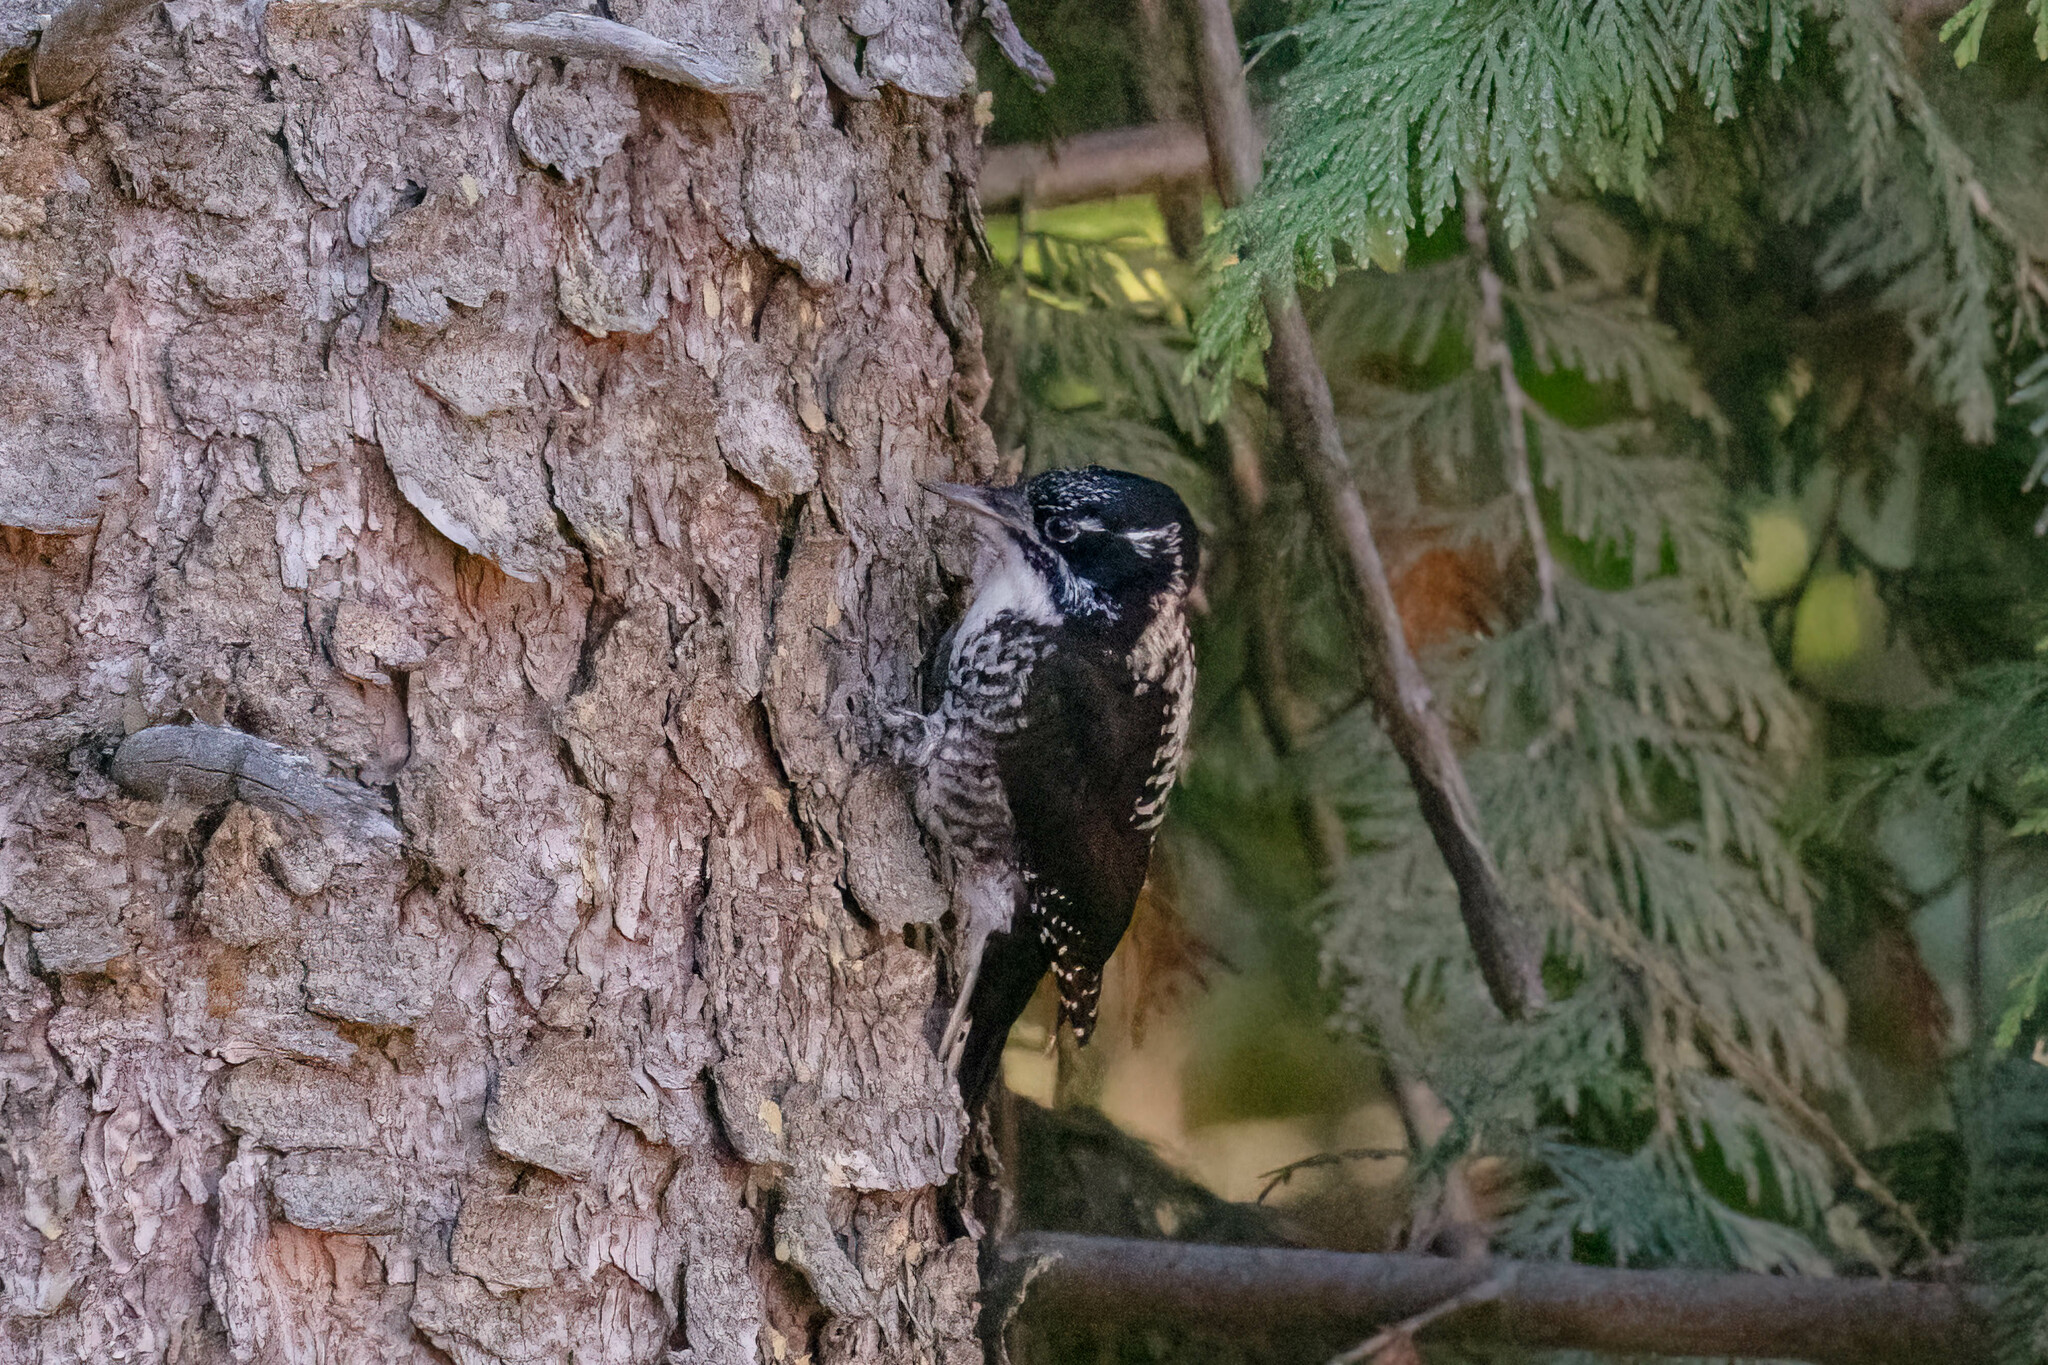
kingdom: Animalia
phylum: Chordata
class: Aves
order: Piciformes
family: Picidae
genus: Picoides
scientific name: Picoides dorsalis
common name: American three-toed woodpecker
